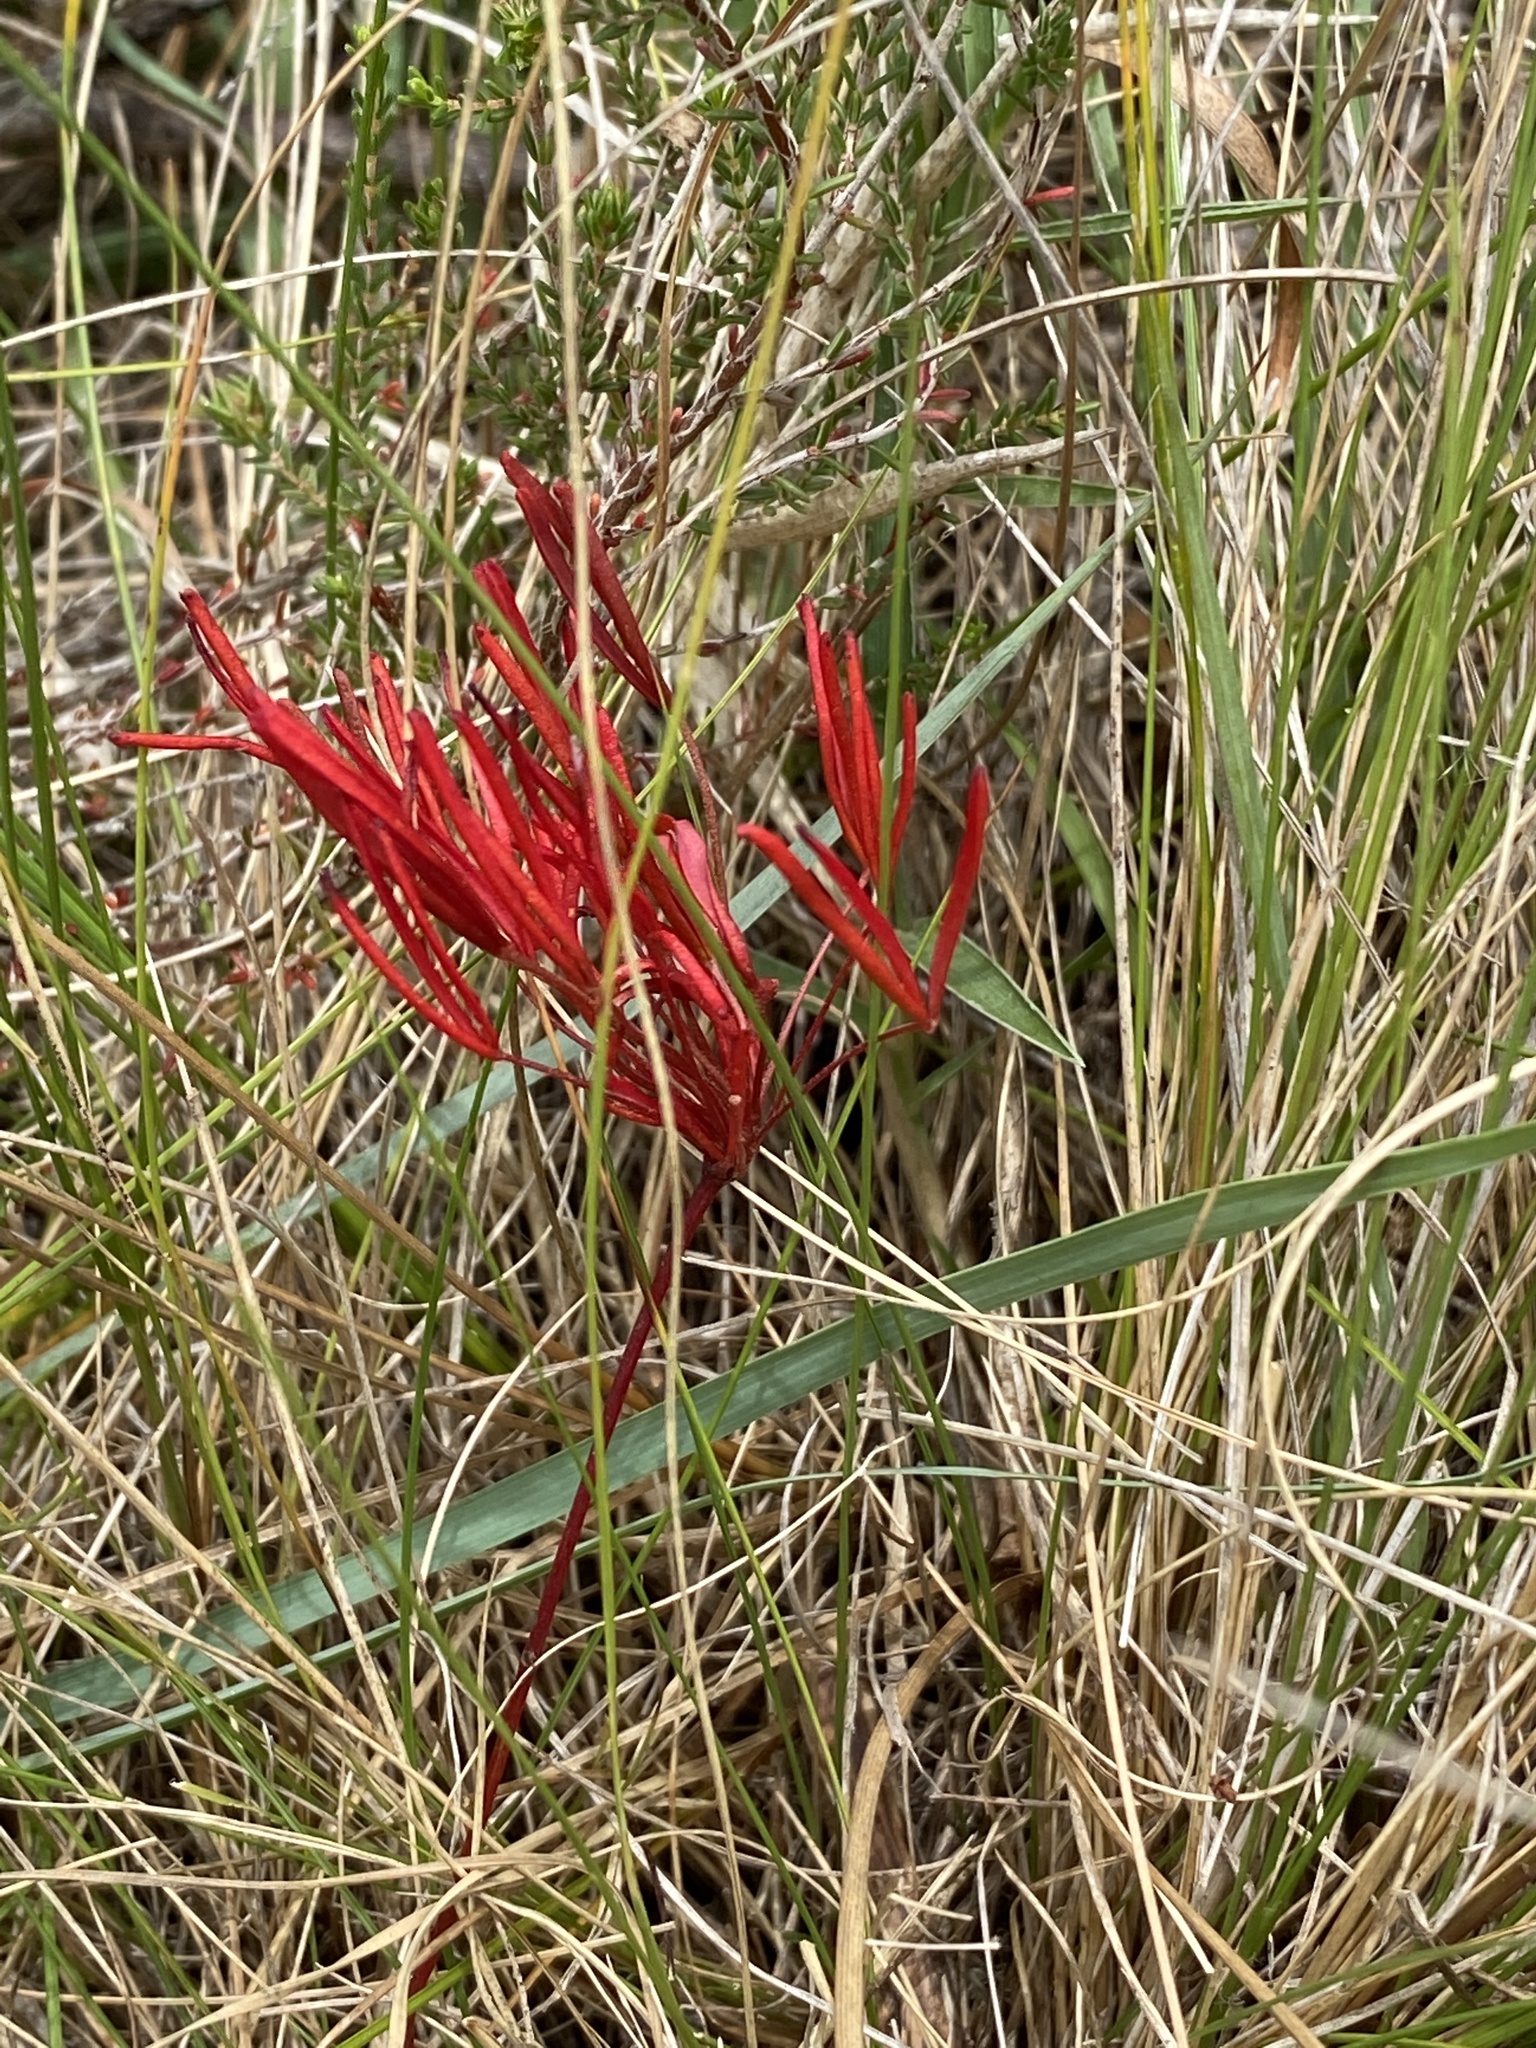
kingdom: Plantae
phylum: Tracheophyta
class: Magnoliopsida
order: Oxalidales
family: Oxalidaceae
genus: Oxalis
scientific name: Oxalis polyphylla
